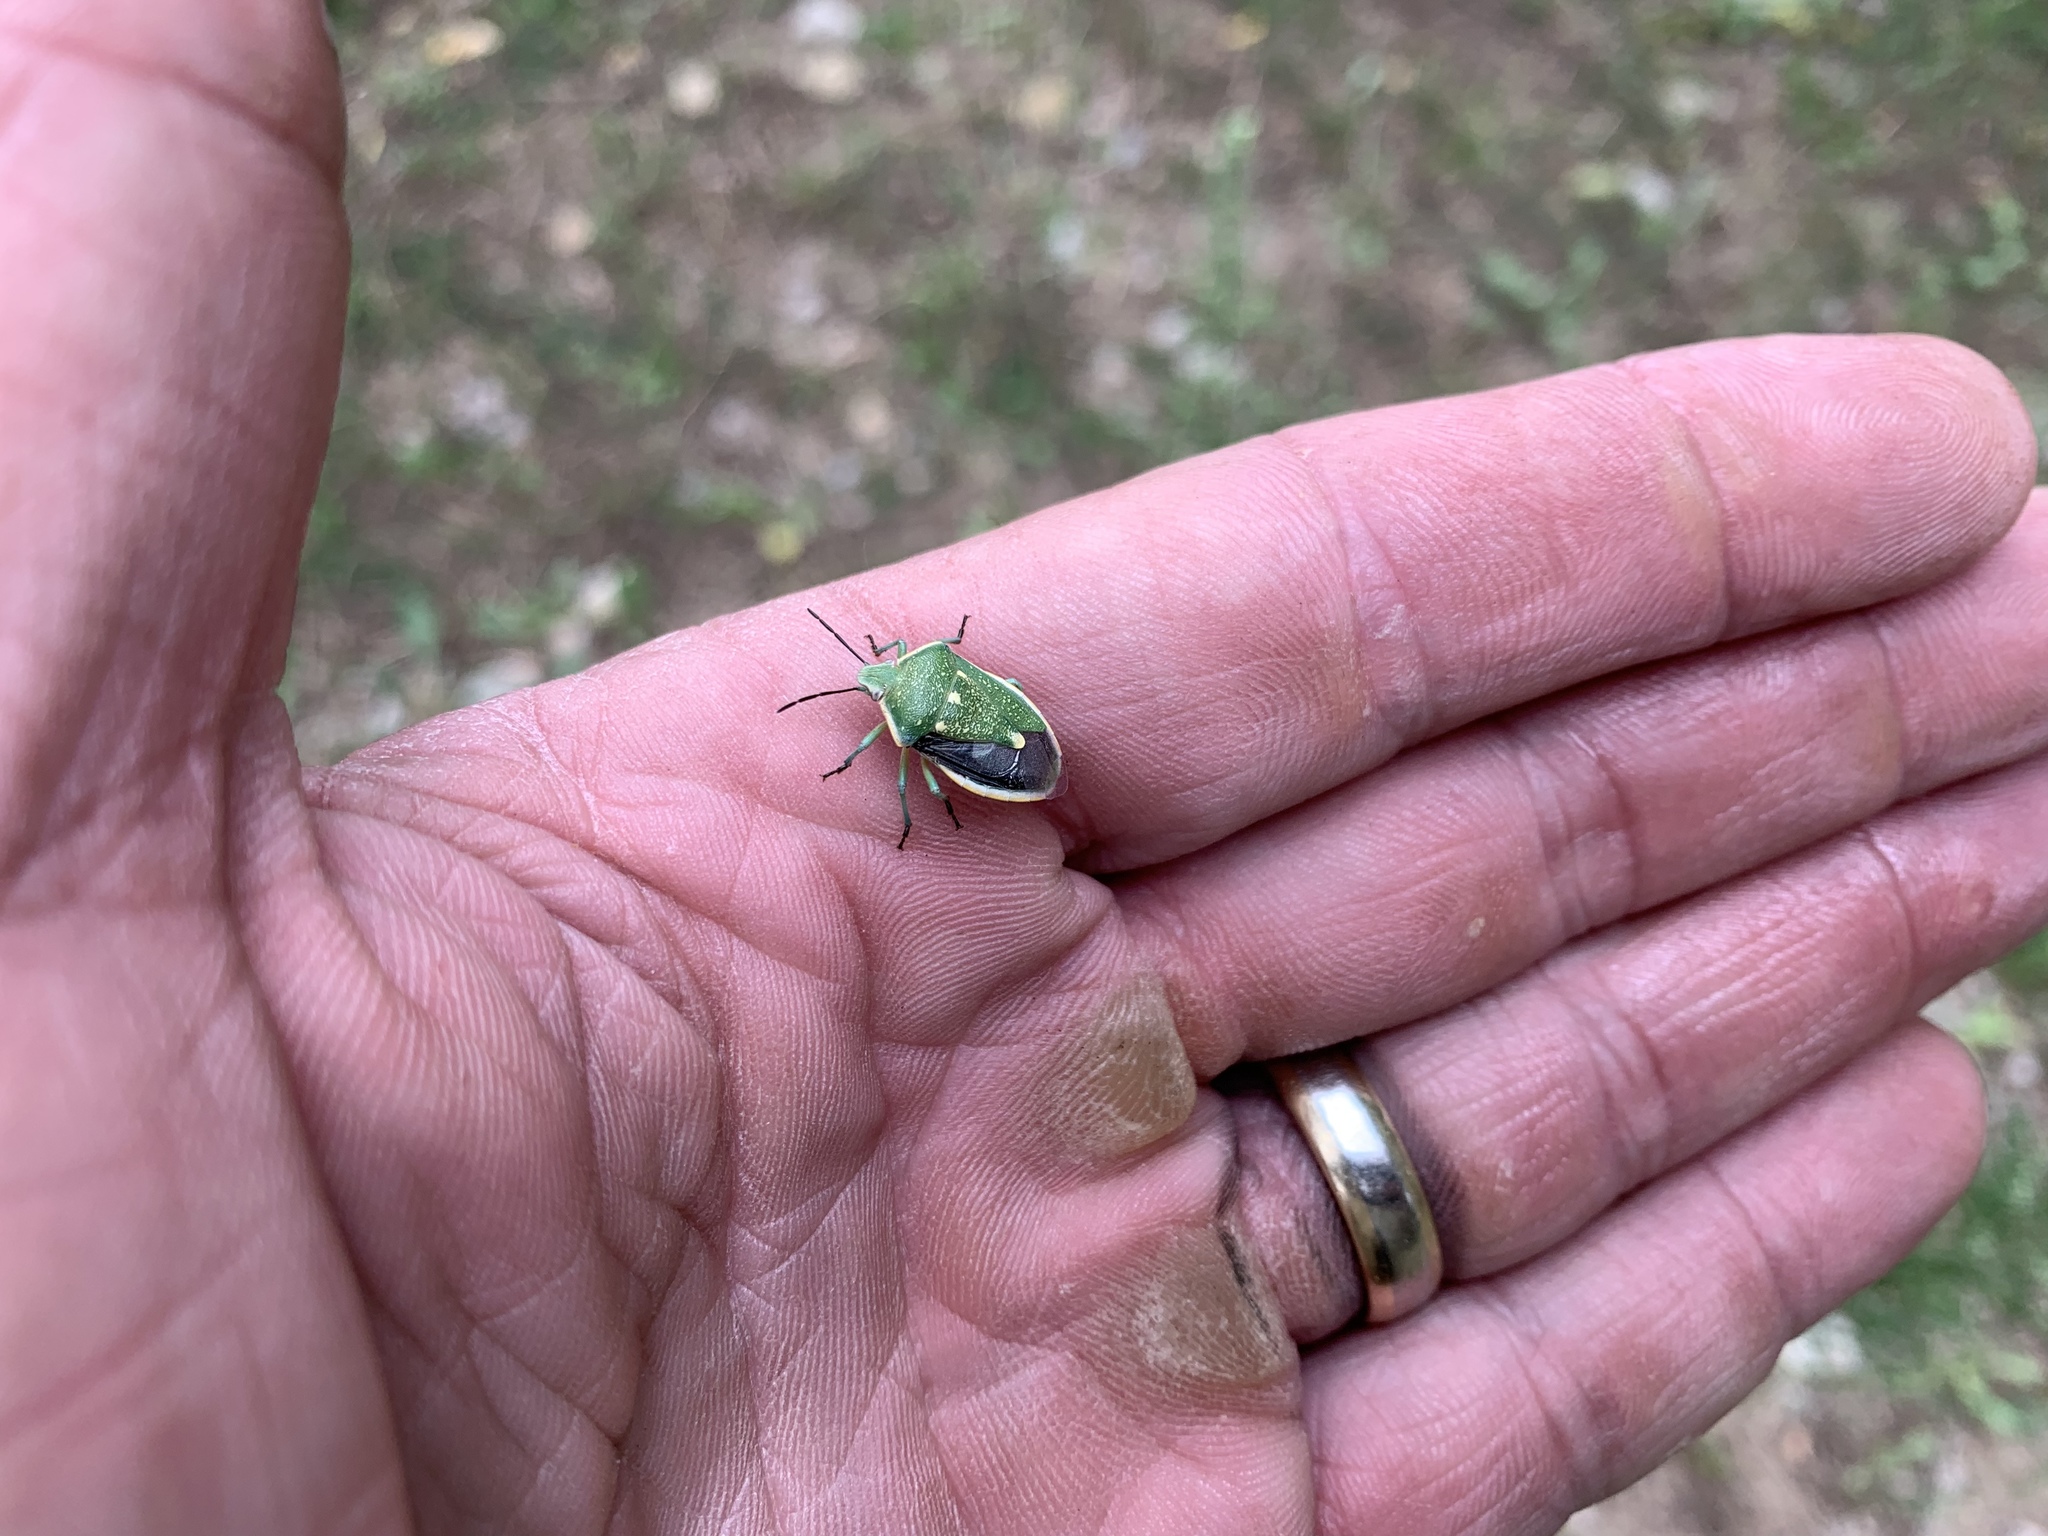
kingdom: Animalia
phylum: Arthropoda
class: Insecta
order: Hemiptera
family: Pentatomidae
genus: Chlorochroa
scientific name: Chlorochroa sayi
